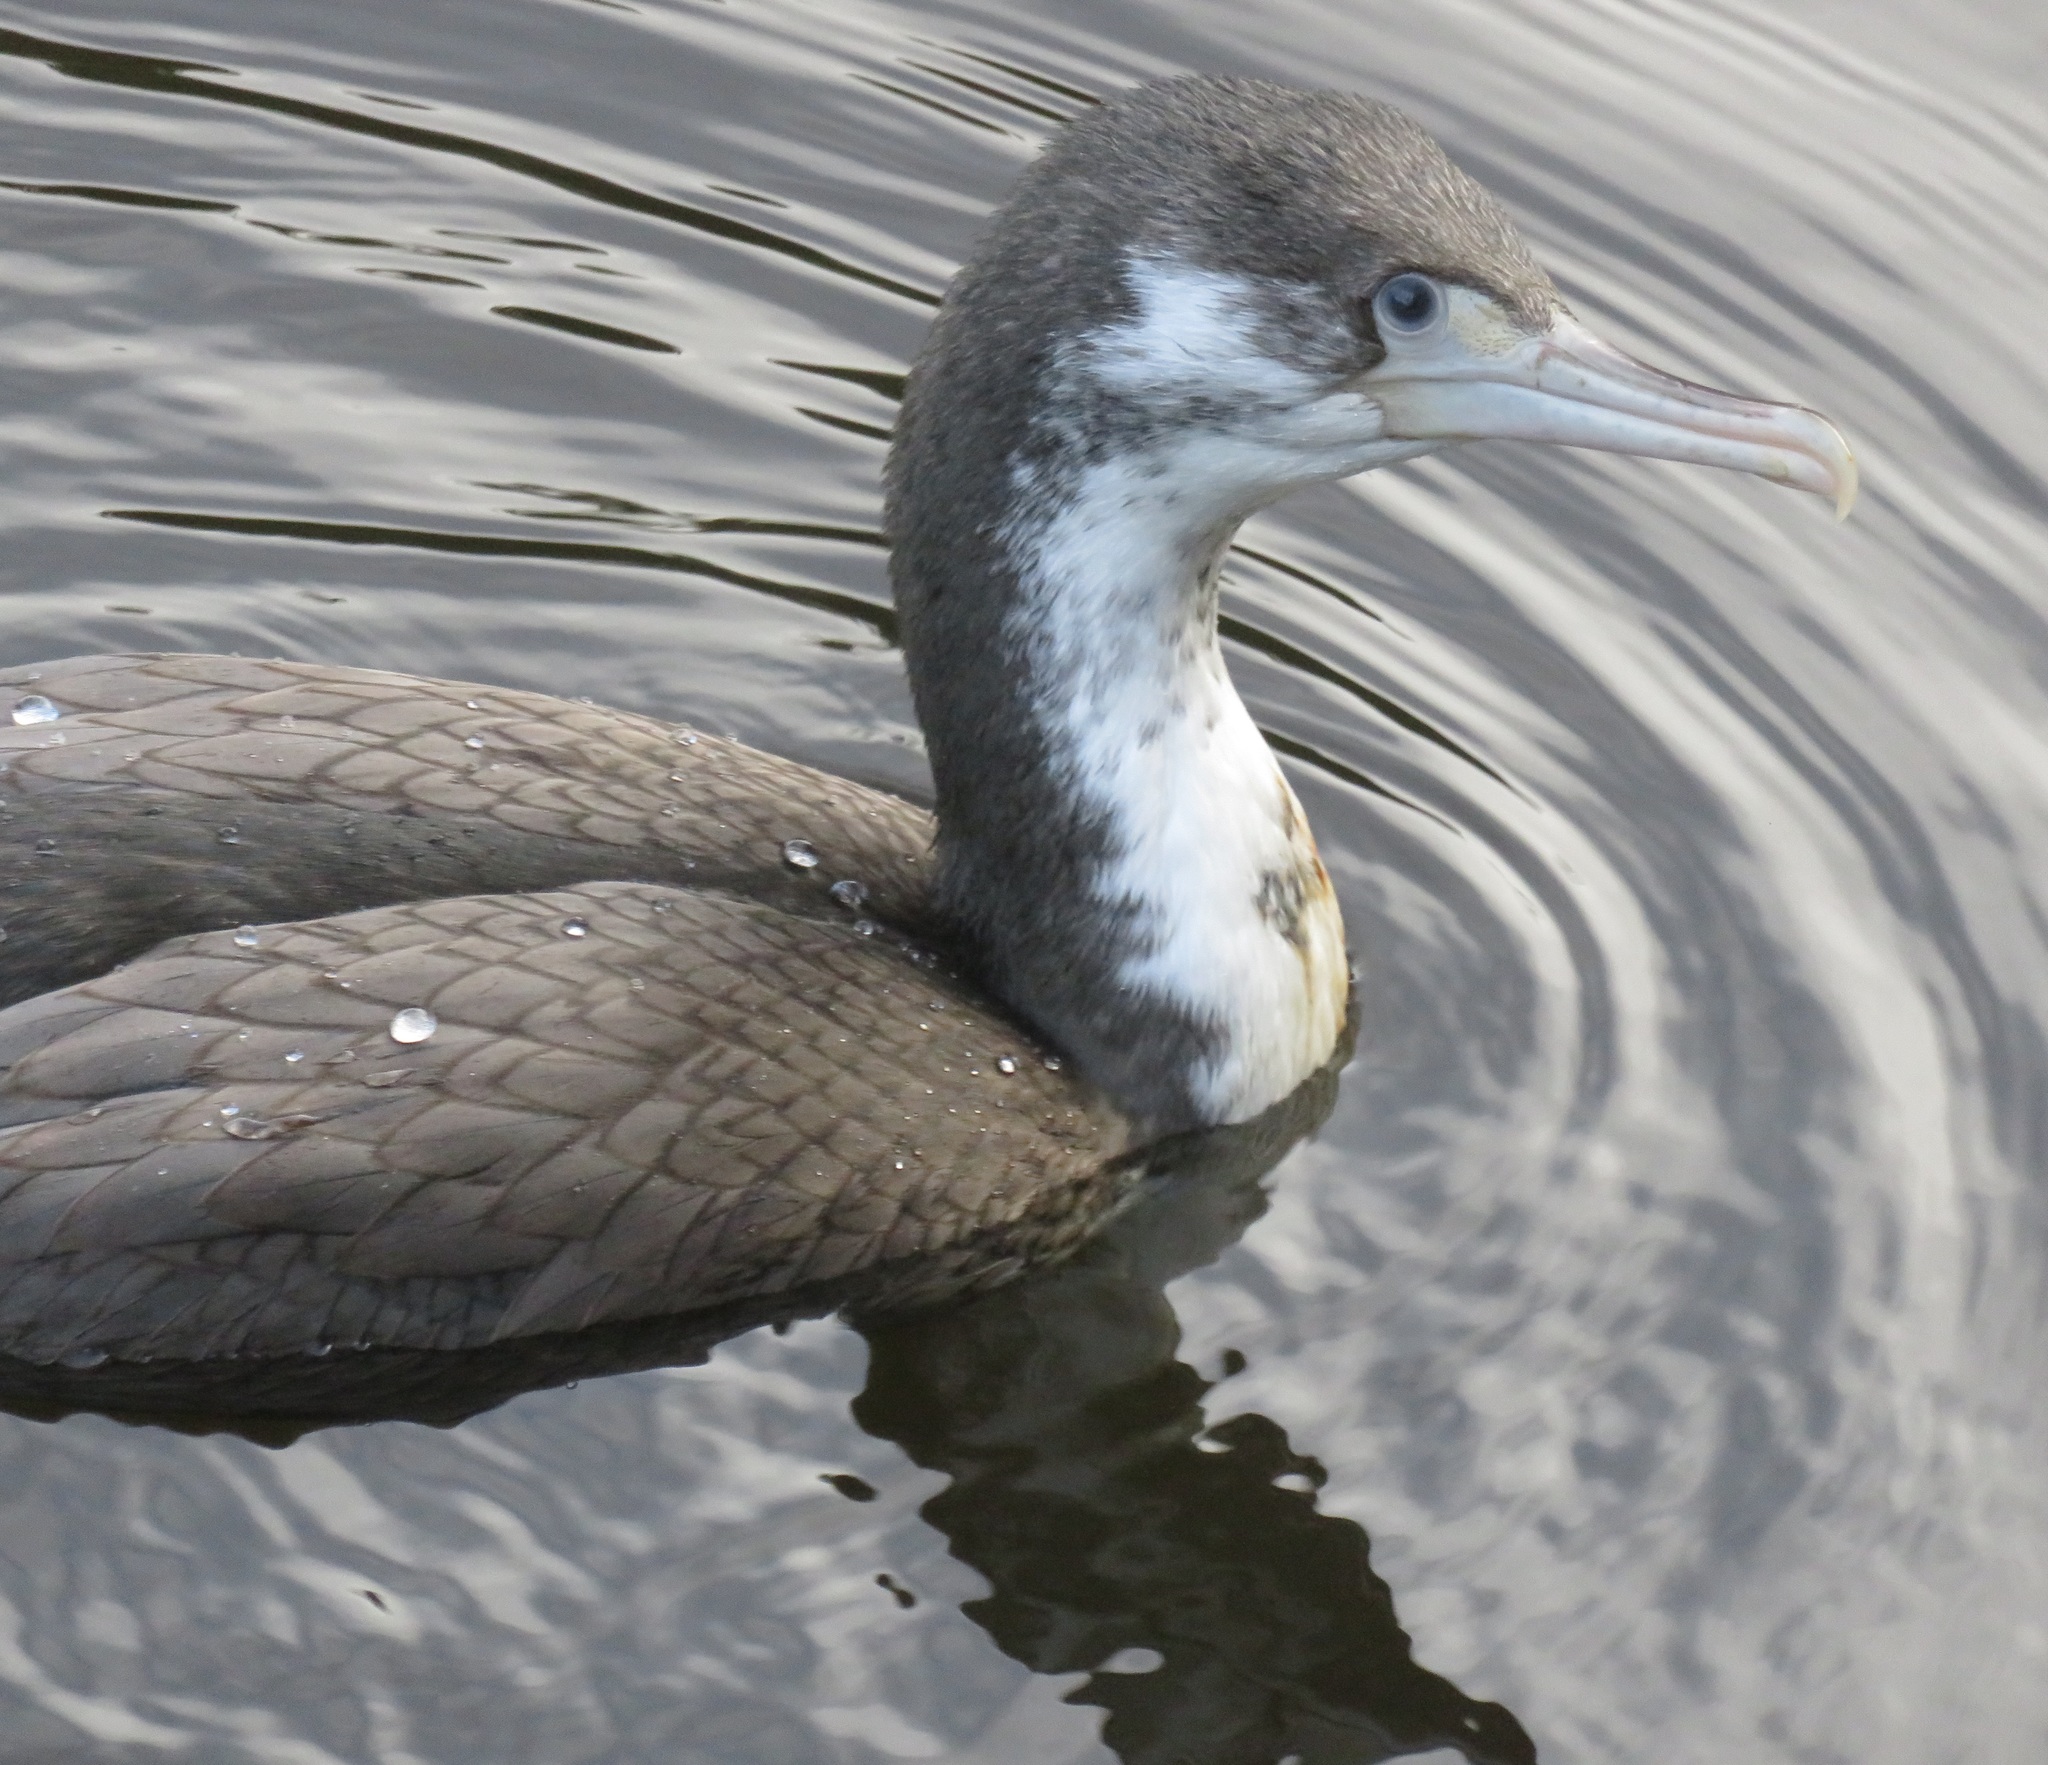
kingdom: Animalia
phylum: Chordata
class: Aves
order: Suliformes
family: Phalacrocoracidae
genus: Phalacrocorax
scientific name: Phalacrocorax varius
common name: Pied cormorant
